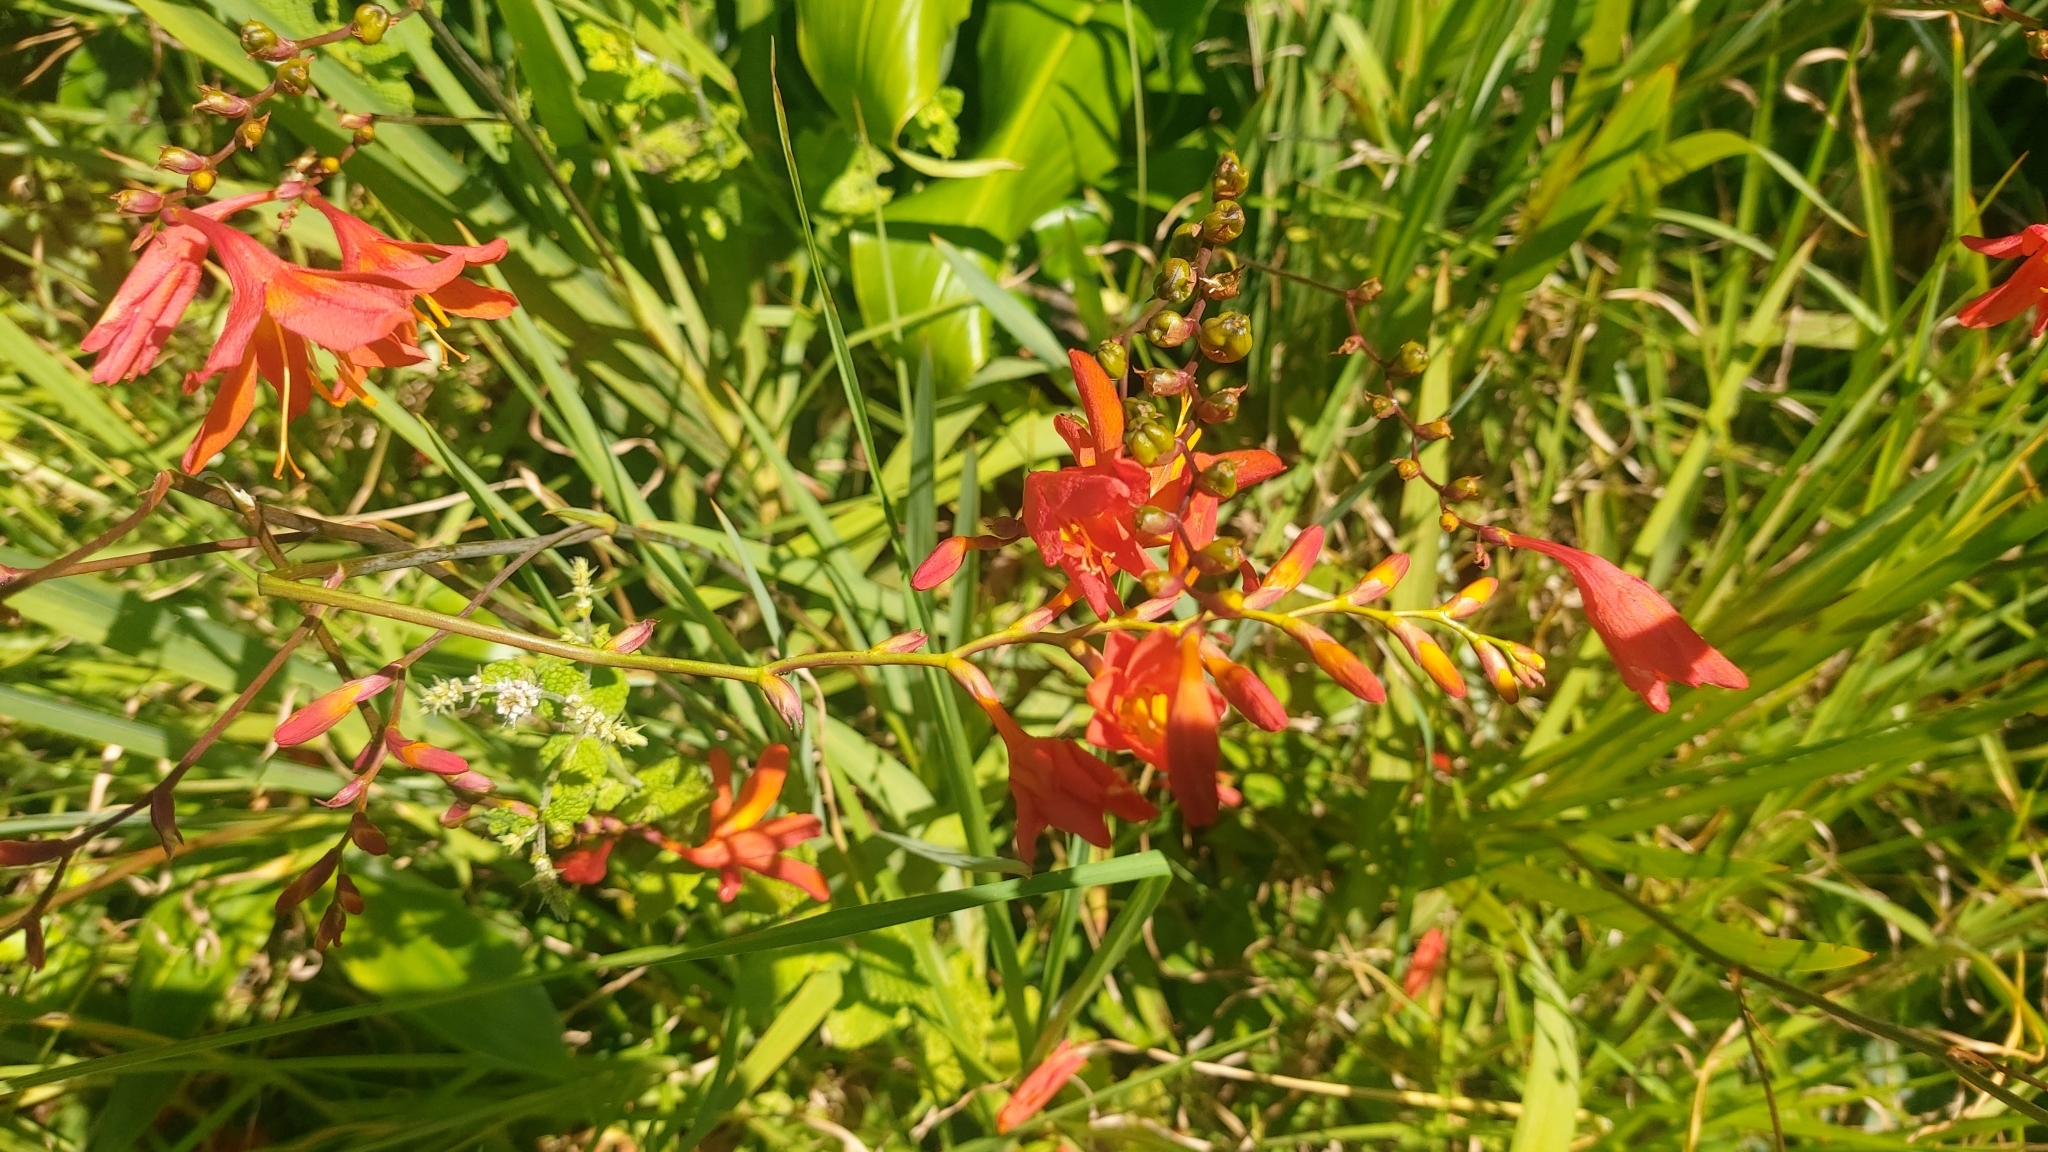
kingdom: Plantae
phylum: Tracheophyta
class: Liliopsida
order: Asparagales
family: Iridaceae
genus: Crocosmia
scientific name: Crocosmia crocosmiiflora
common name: Montbretia
